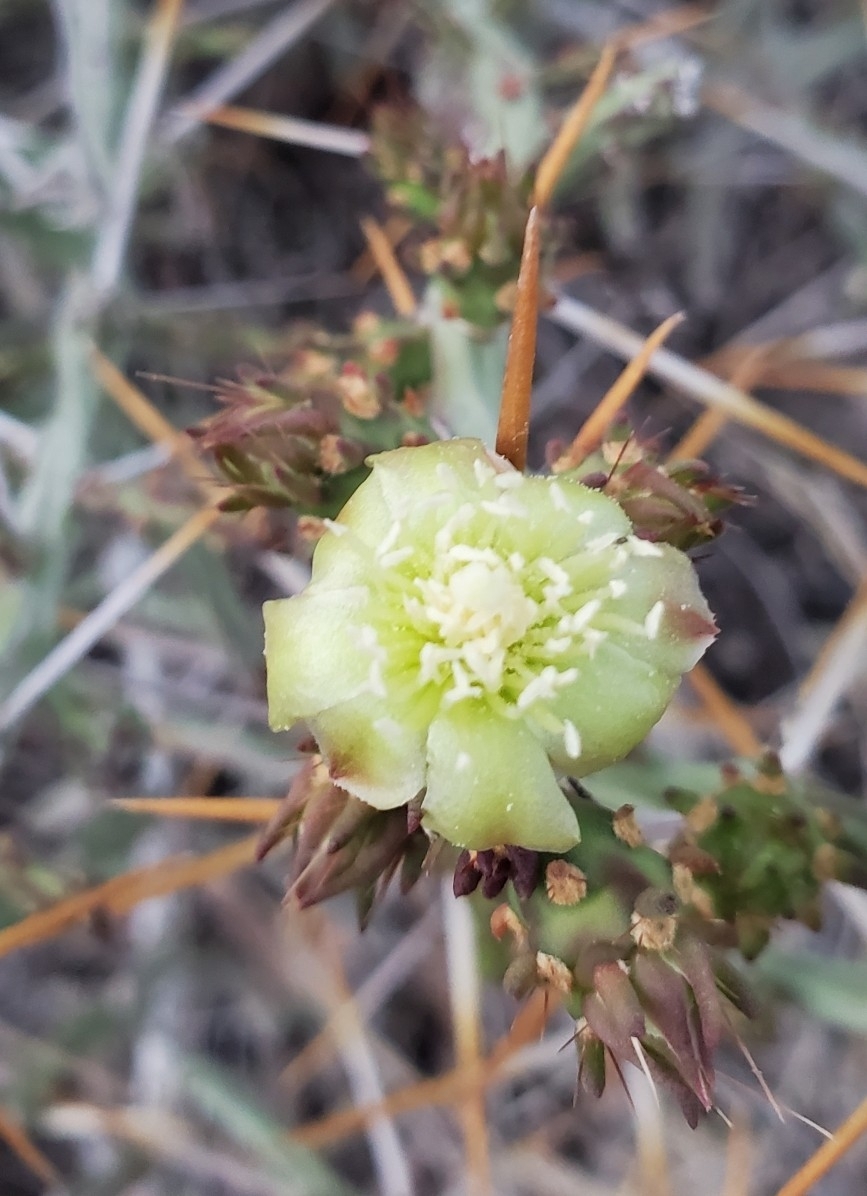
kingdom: Plantae
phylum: Tracheophyta
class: Magnoliopsida
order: Caryophyllales
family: Cactaceae
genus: Cylindropuntia
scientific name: Cylindropuntia leptocaulis
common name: Christmas cactus
